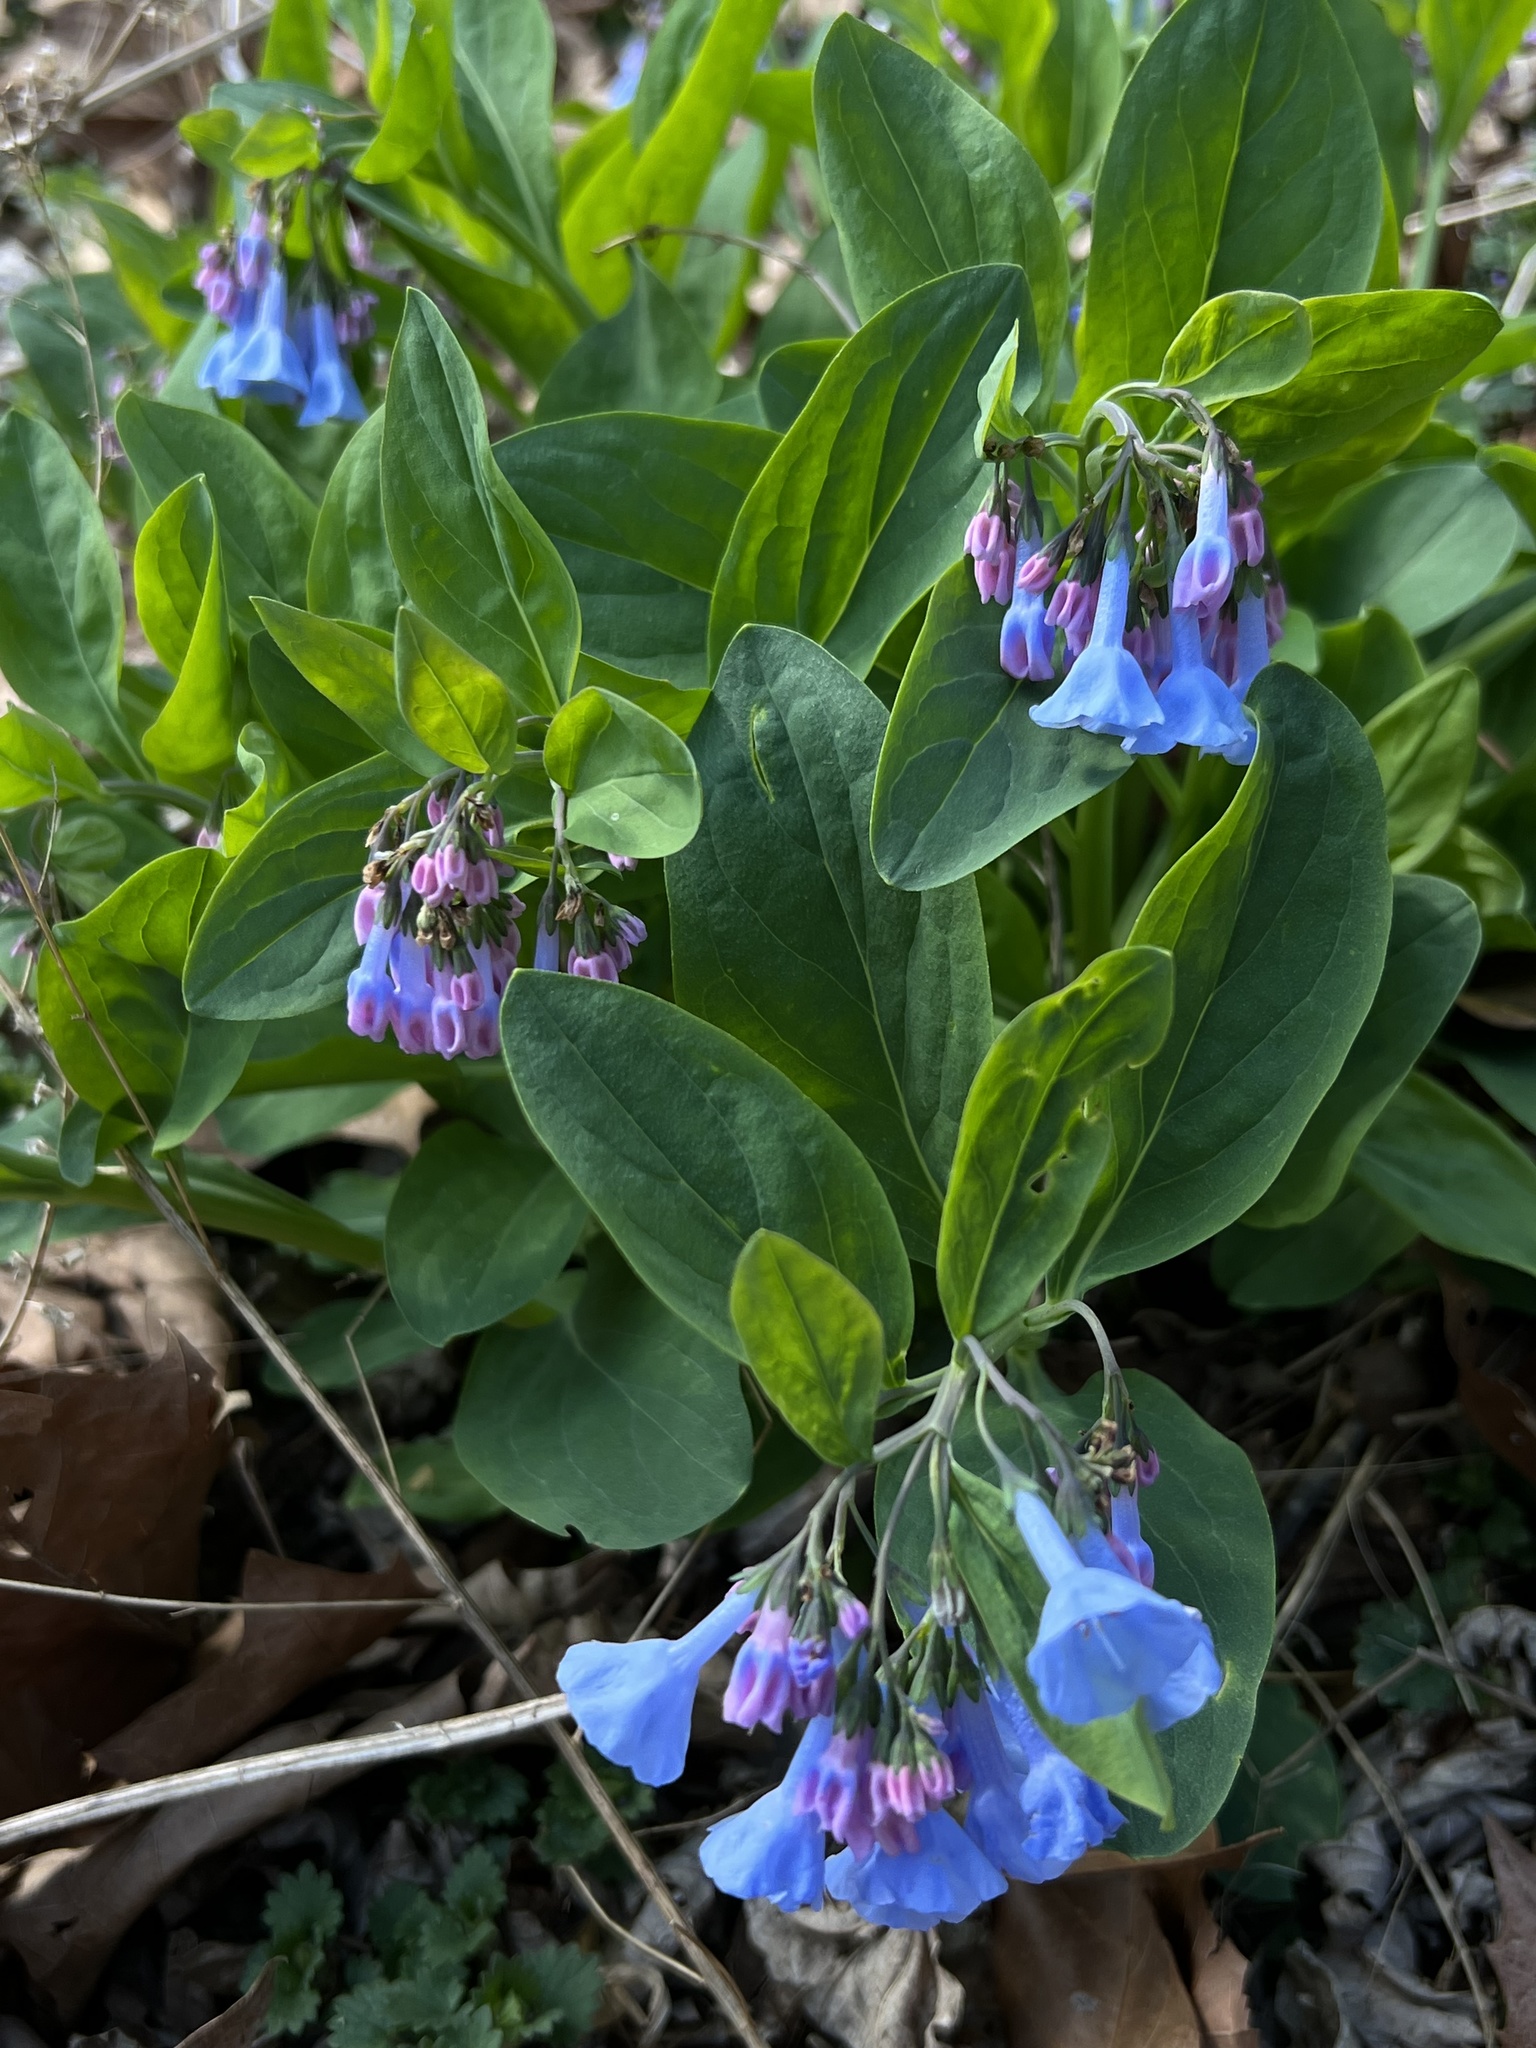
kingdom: Plantae
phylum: Tracheophyta
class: Magnoliopsida
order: Boraginales
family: Boraginaceae
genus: Mertensia
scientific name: Mertensia virginica
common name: Virginia bluebells
